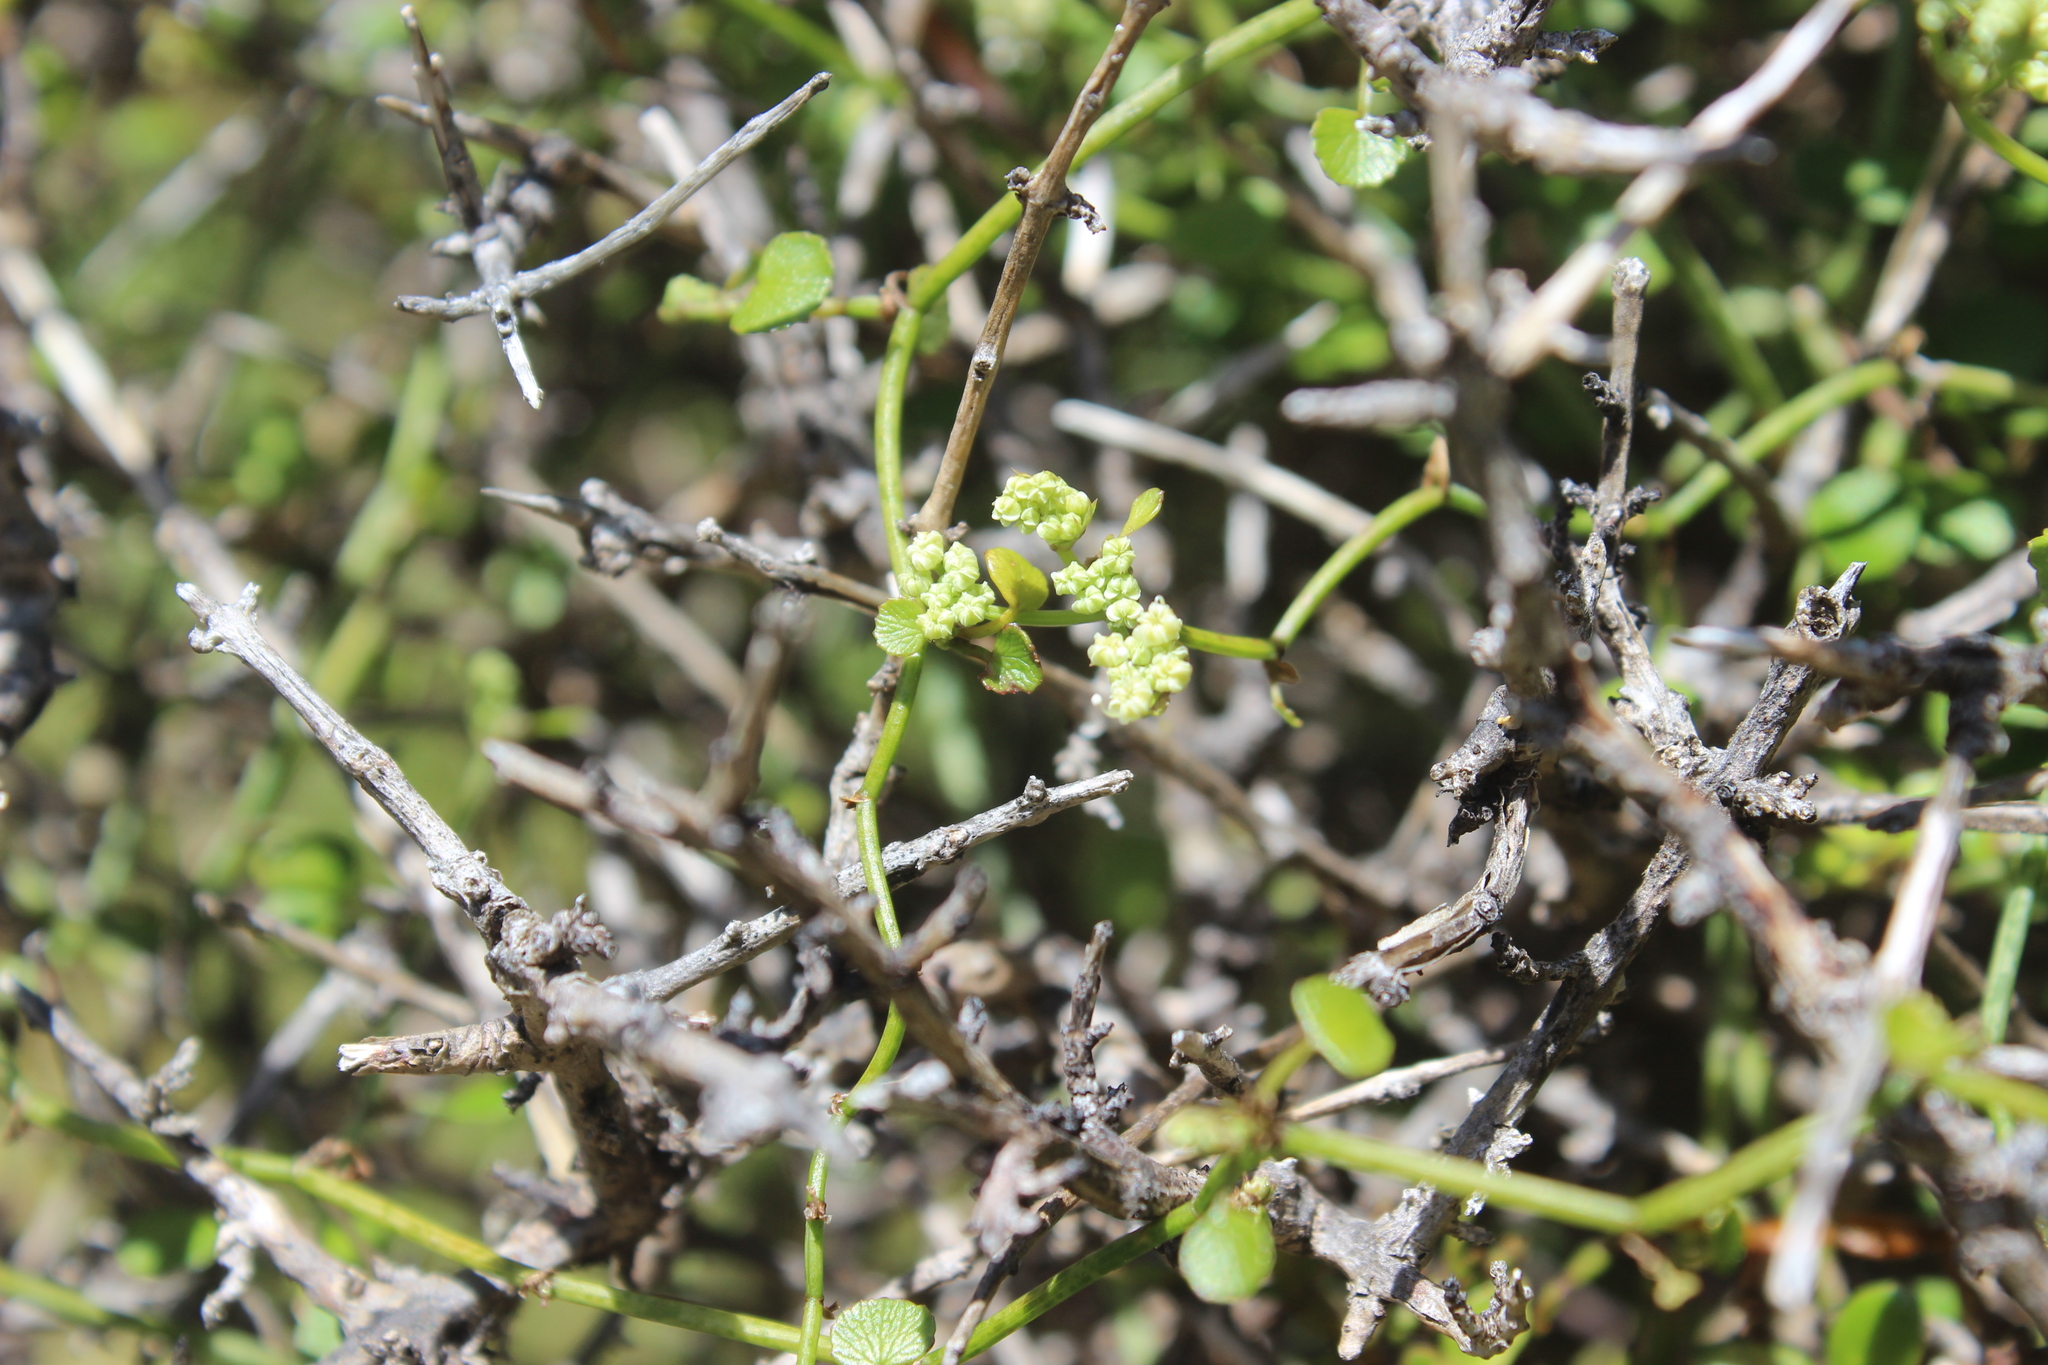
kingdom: Plantae
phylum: Tracheophyta
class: Magnoliopsida
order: Apiales
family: Apiaceae
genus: Scandia
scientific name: Scandia geniculata
